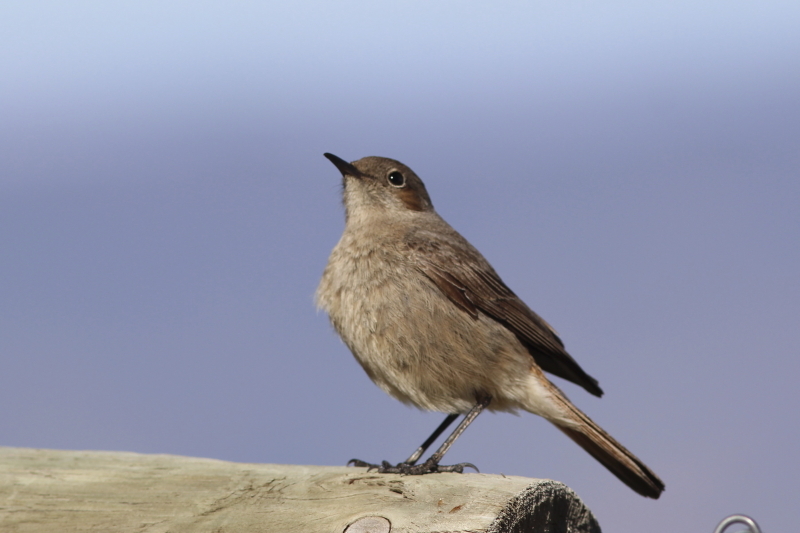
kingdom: Animalia
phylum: Chordata
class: Aves
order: Passeriformes
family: Muscicapidae
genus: Oenanthe
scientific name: Oenanthe familiaris
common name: Familiar chat
